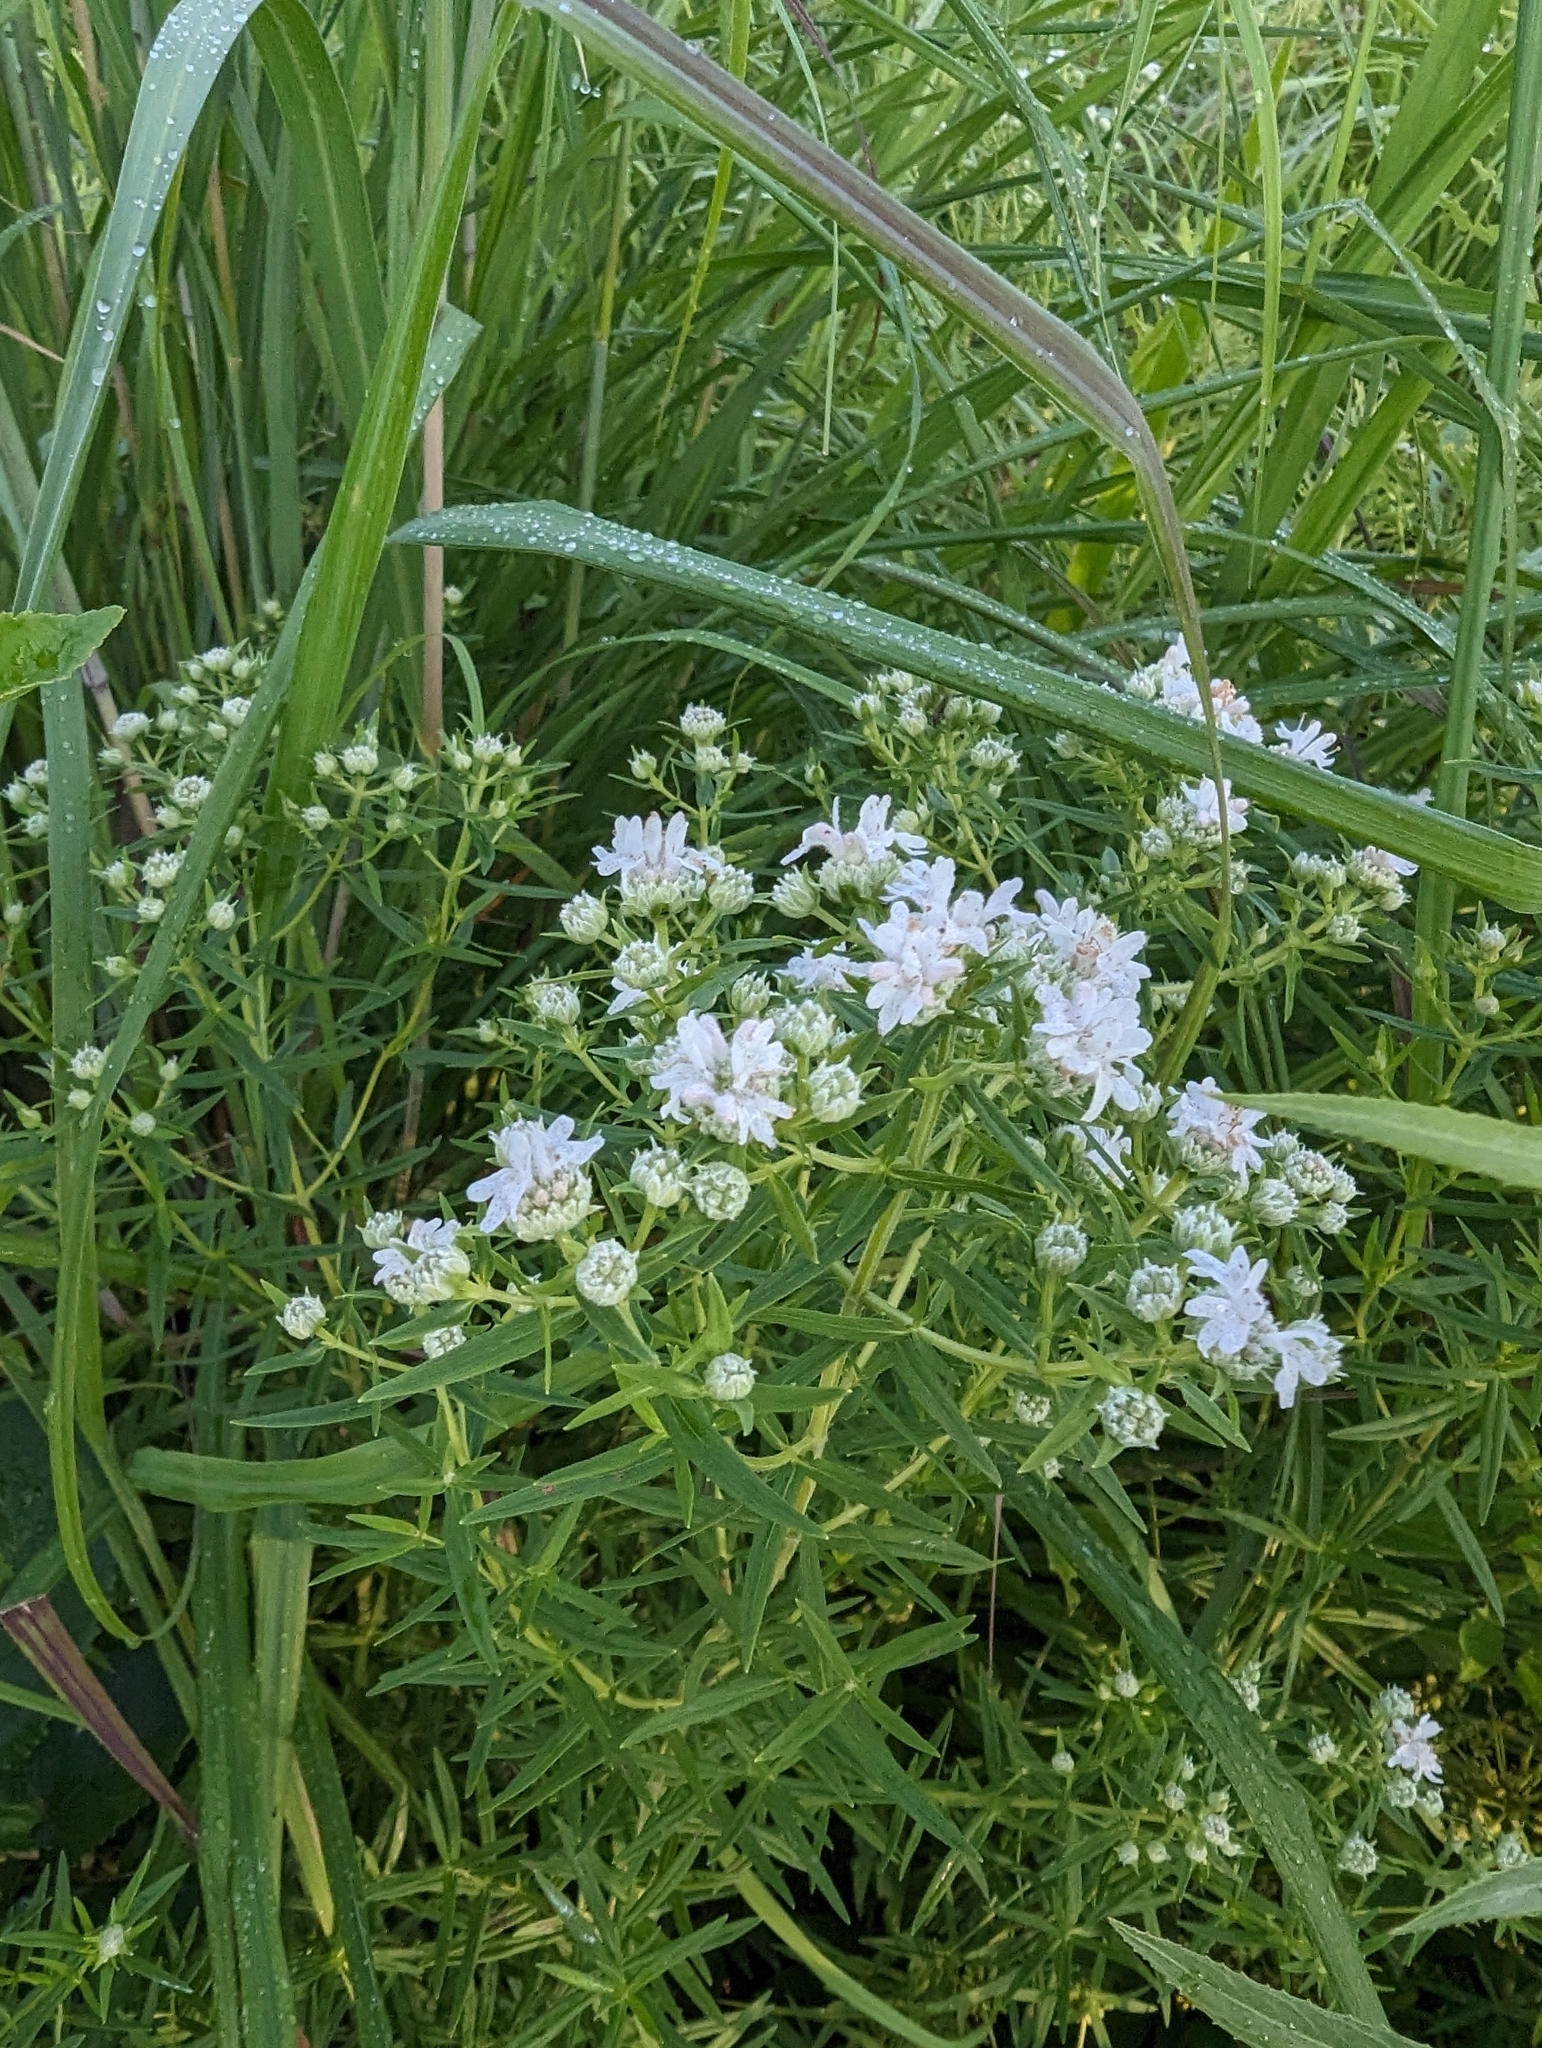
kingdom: Plantae
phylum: Tracheophyta
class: Magnoliopsida
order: Lamiales
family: Lamiaceae
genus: Pycnanthemum
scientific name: Pycnanthemum virginianum
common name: Virginia mountain-mint
